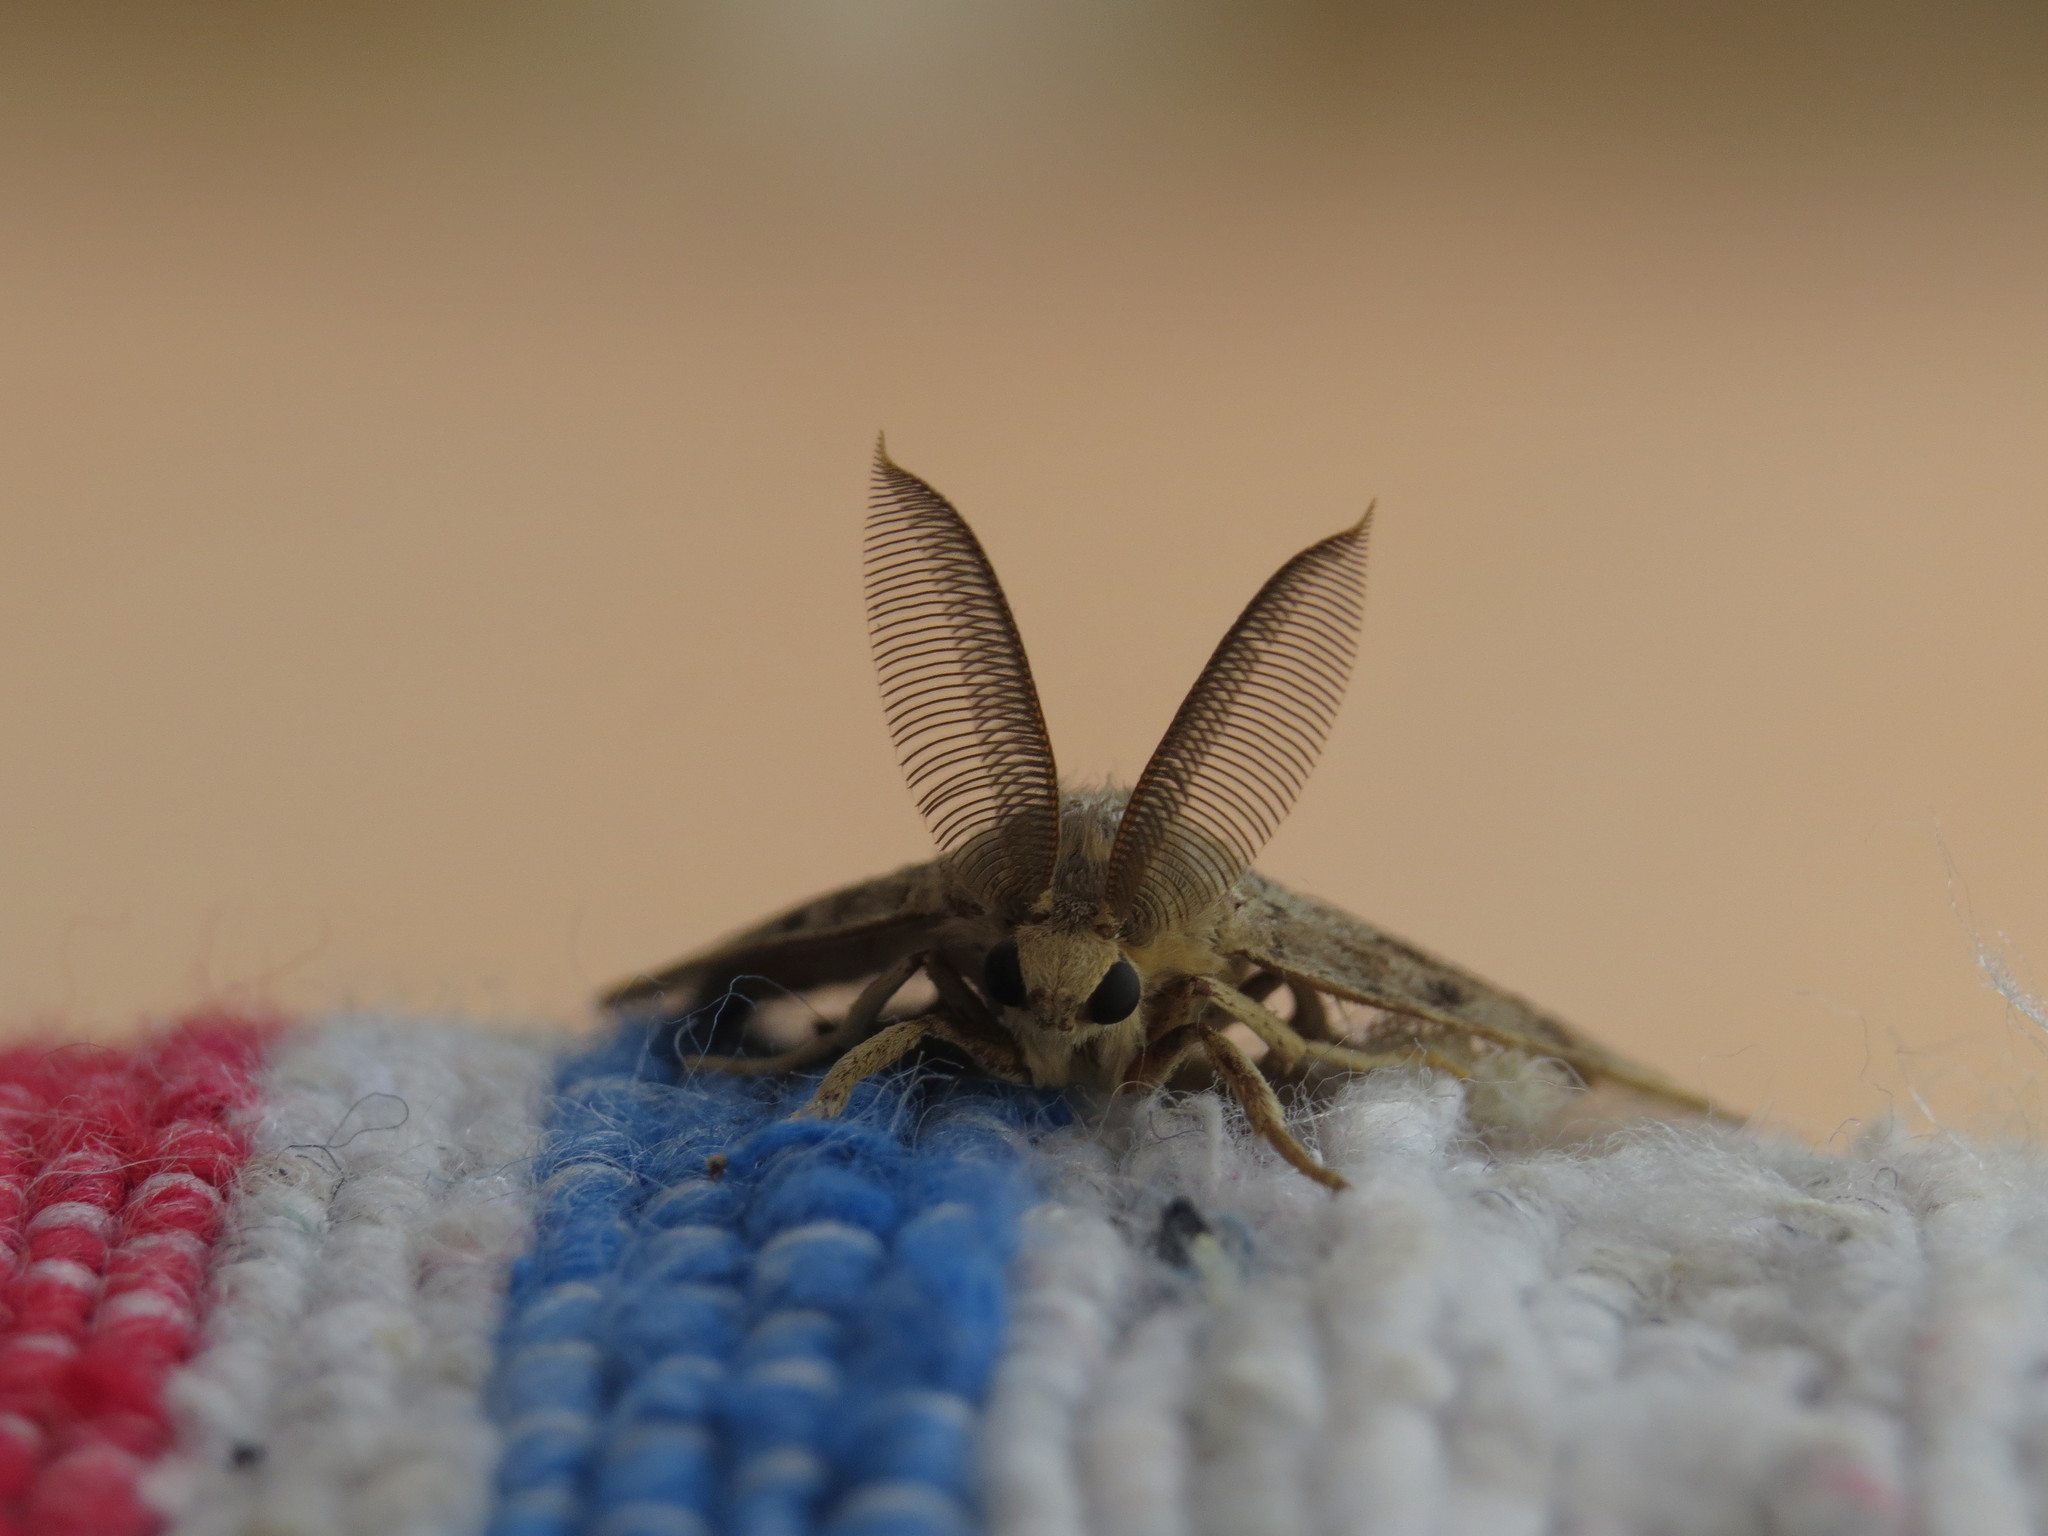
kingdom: Animalia
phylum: Arthropoda
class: Insecta
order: Lepidoptera
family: Erebidae
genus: Lymantria
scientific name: Lymantria dispar
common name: Gypsy moth
